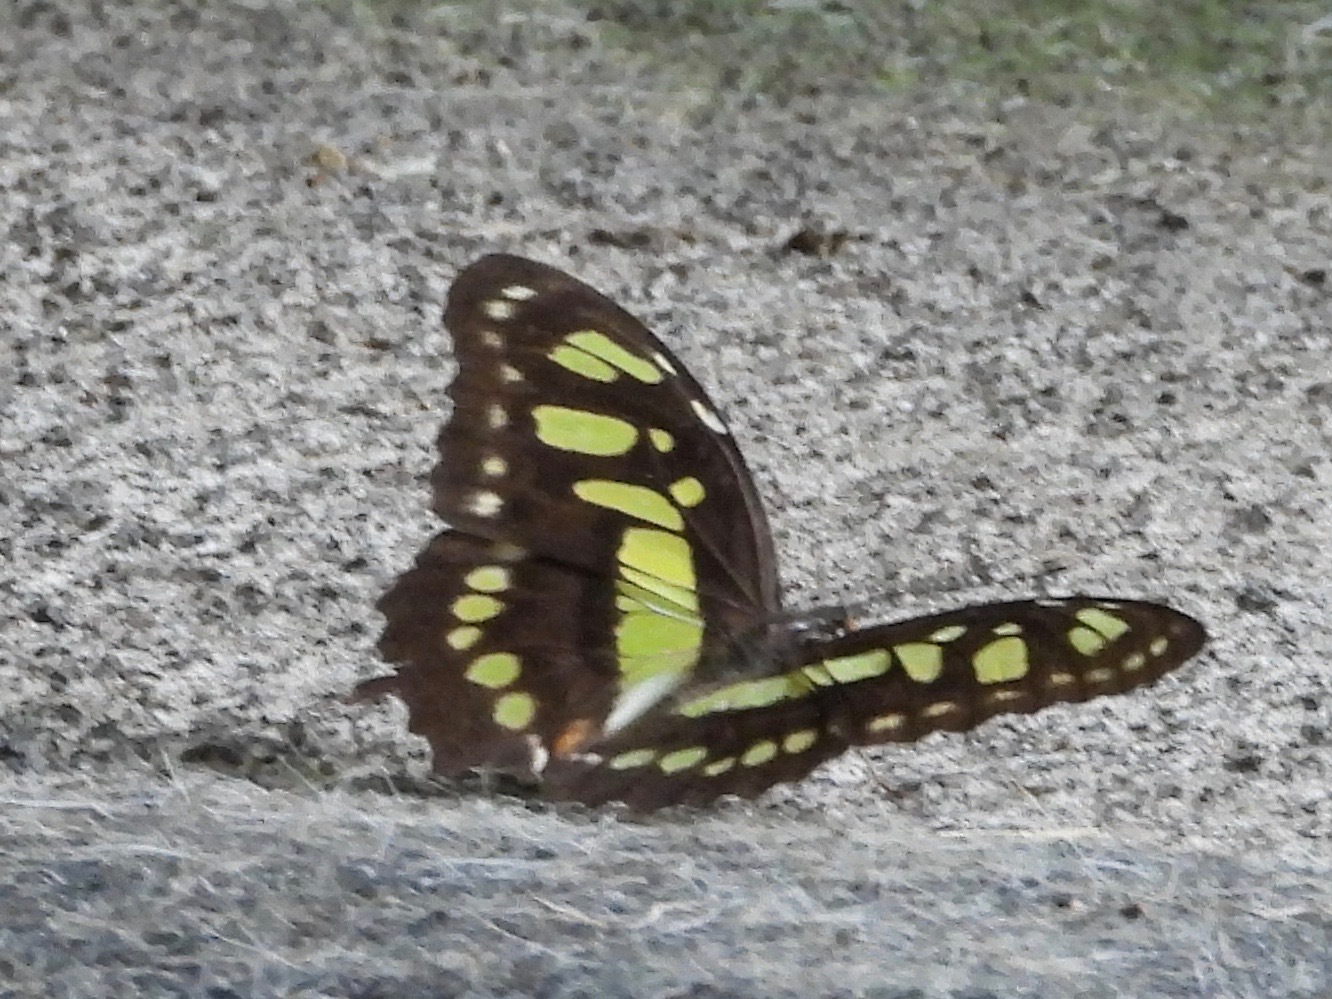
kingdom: Animalia
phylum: Arthropoda
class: Insecta
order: Lepidoptera
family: Nymphalidae
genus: Siproeta
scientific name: Siproeta stelenes
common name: Malachite
